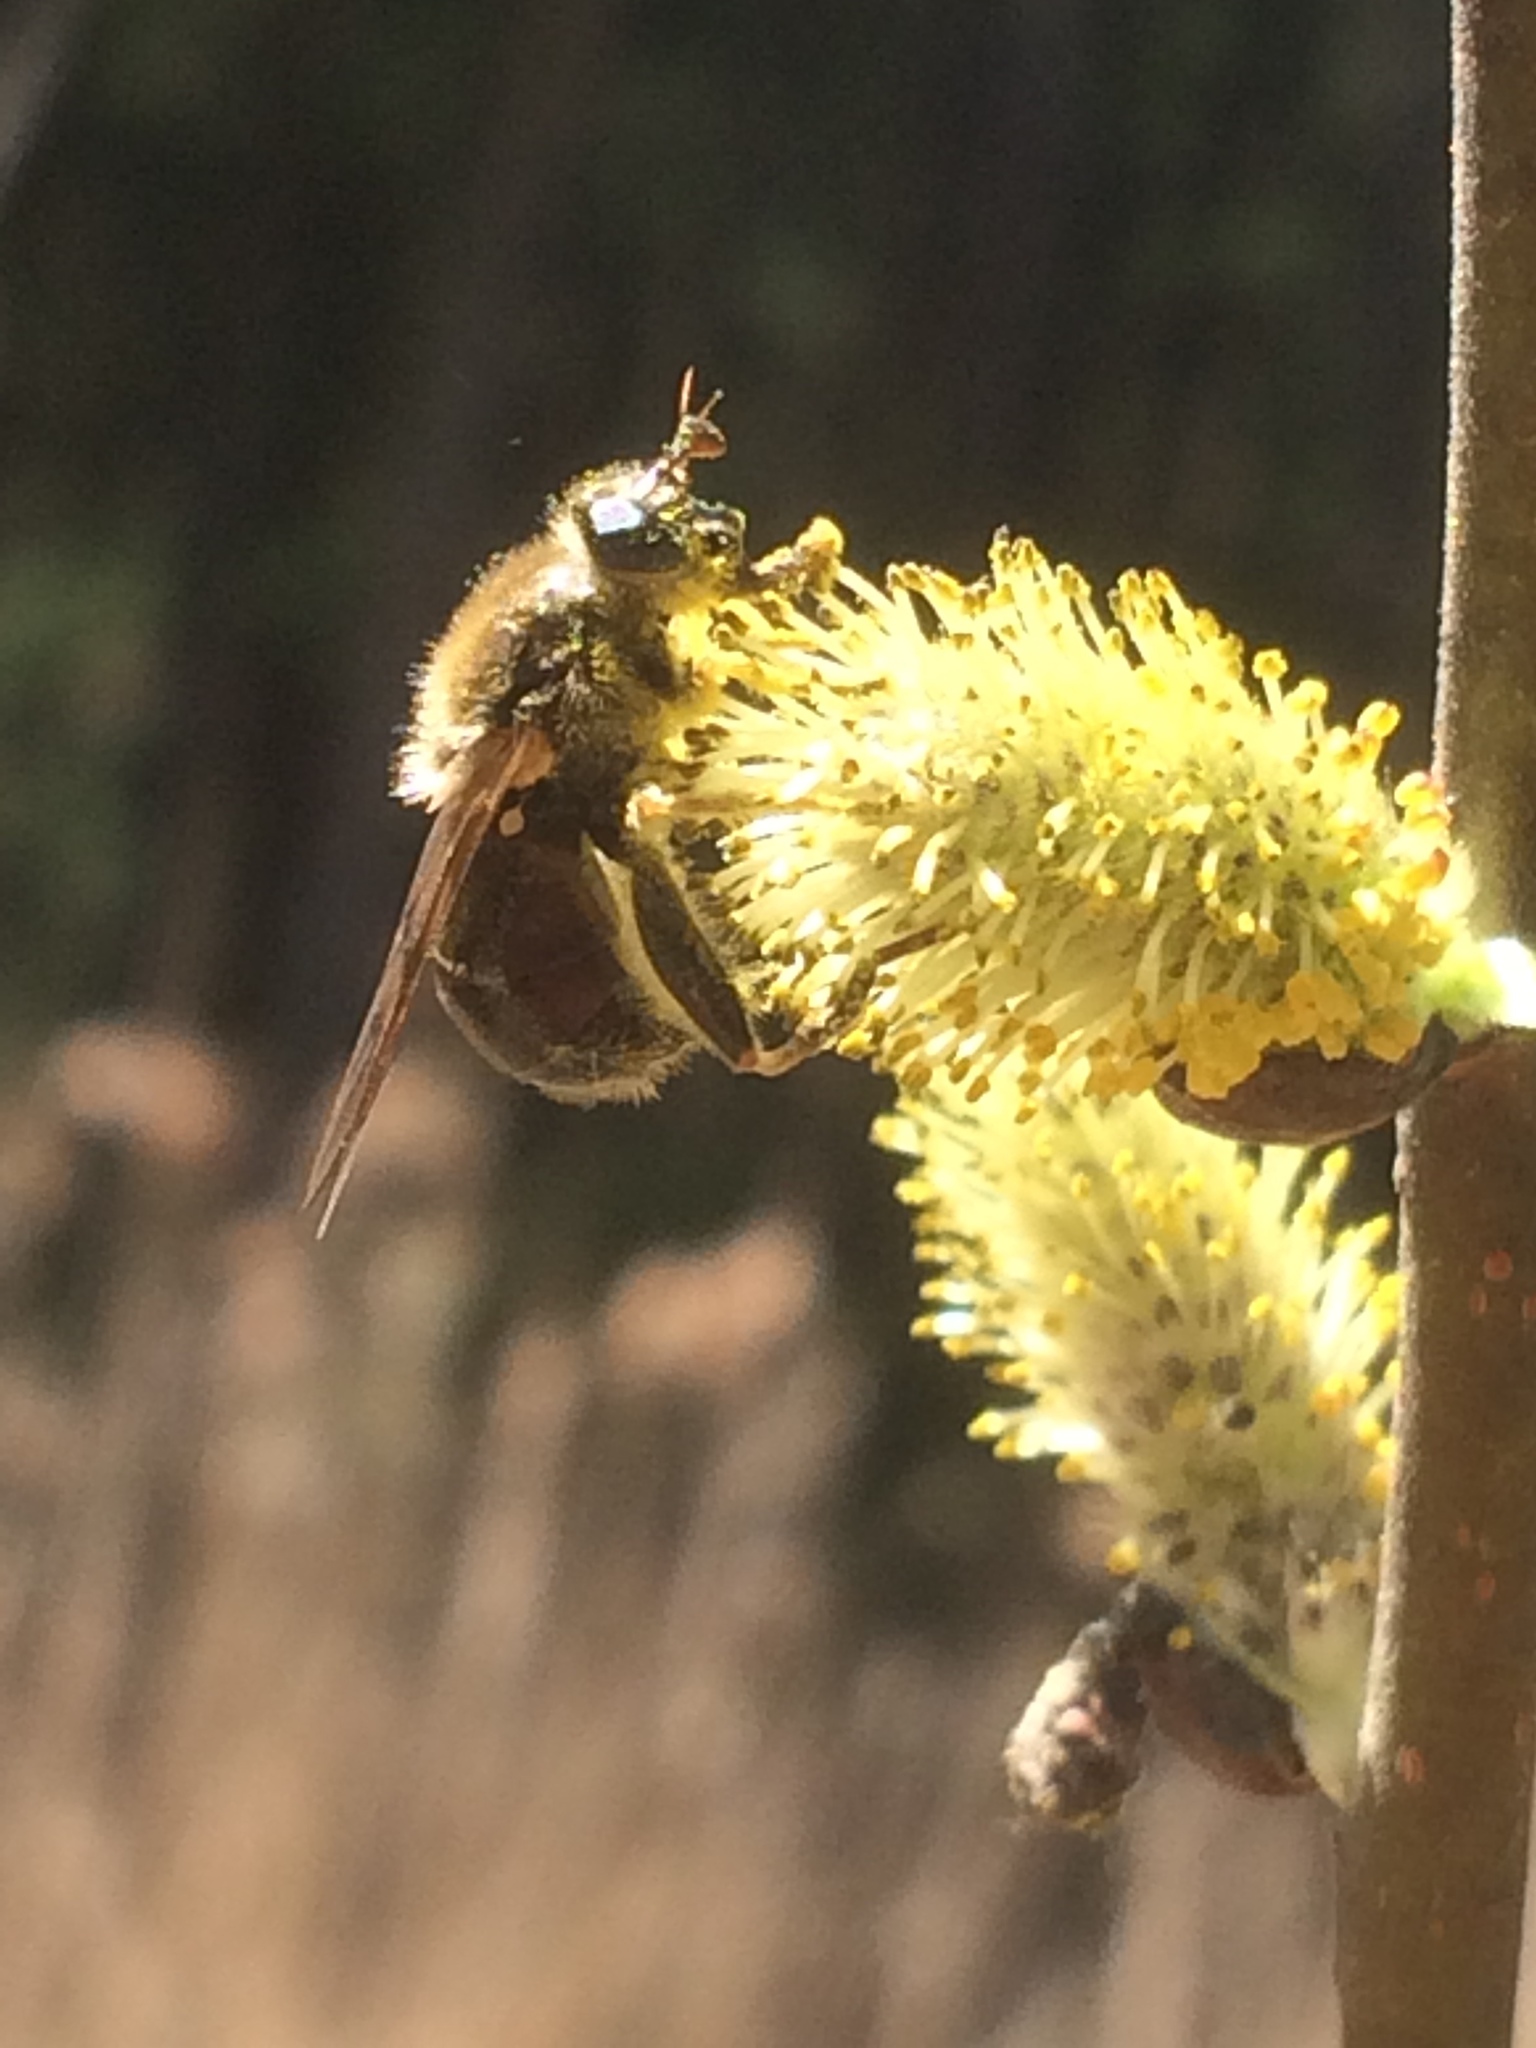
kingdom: Animalia
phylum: Arthropoda
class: Insecta
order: Diptera
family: Syrphidae
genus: Brachypalpus
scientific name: Brachypalpus oarus
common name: Eastern catkin fly
